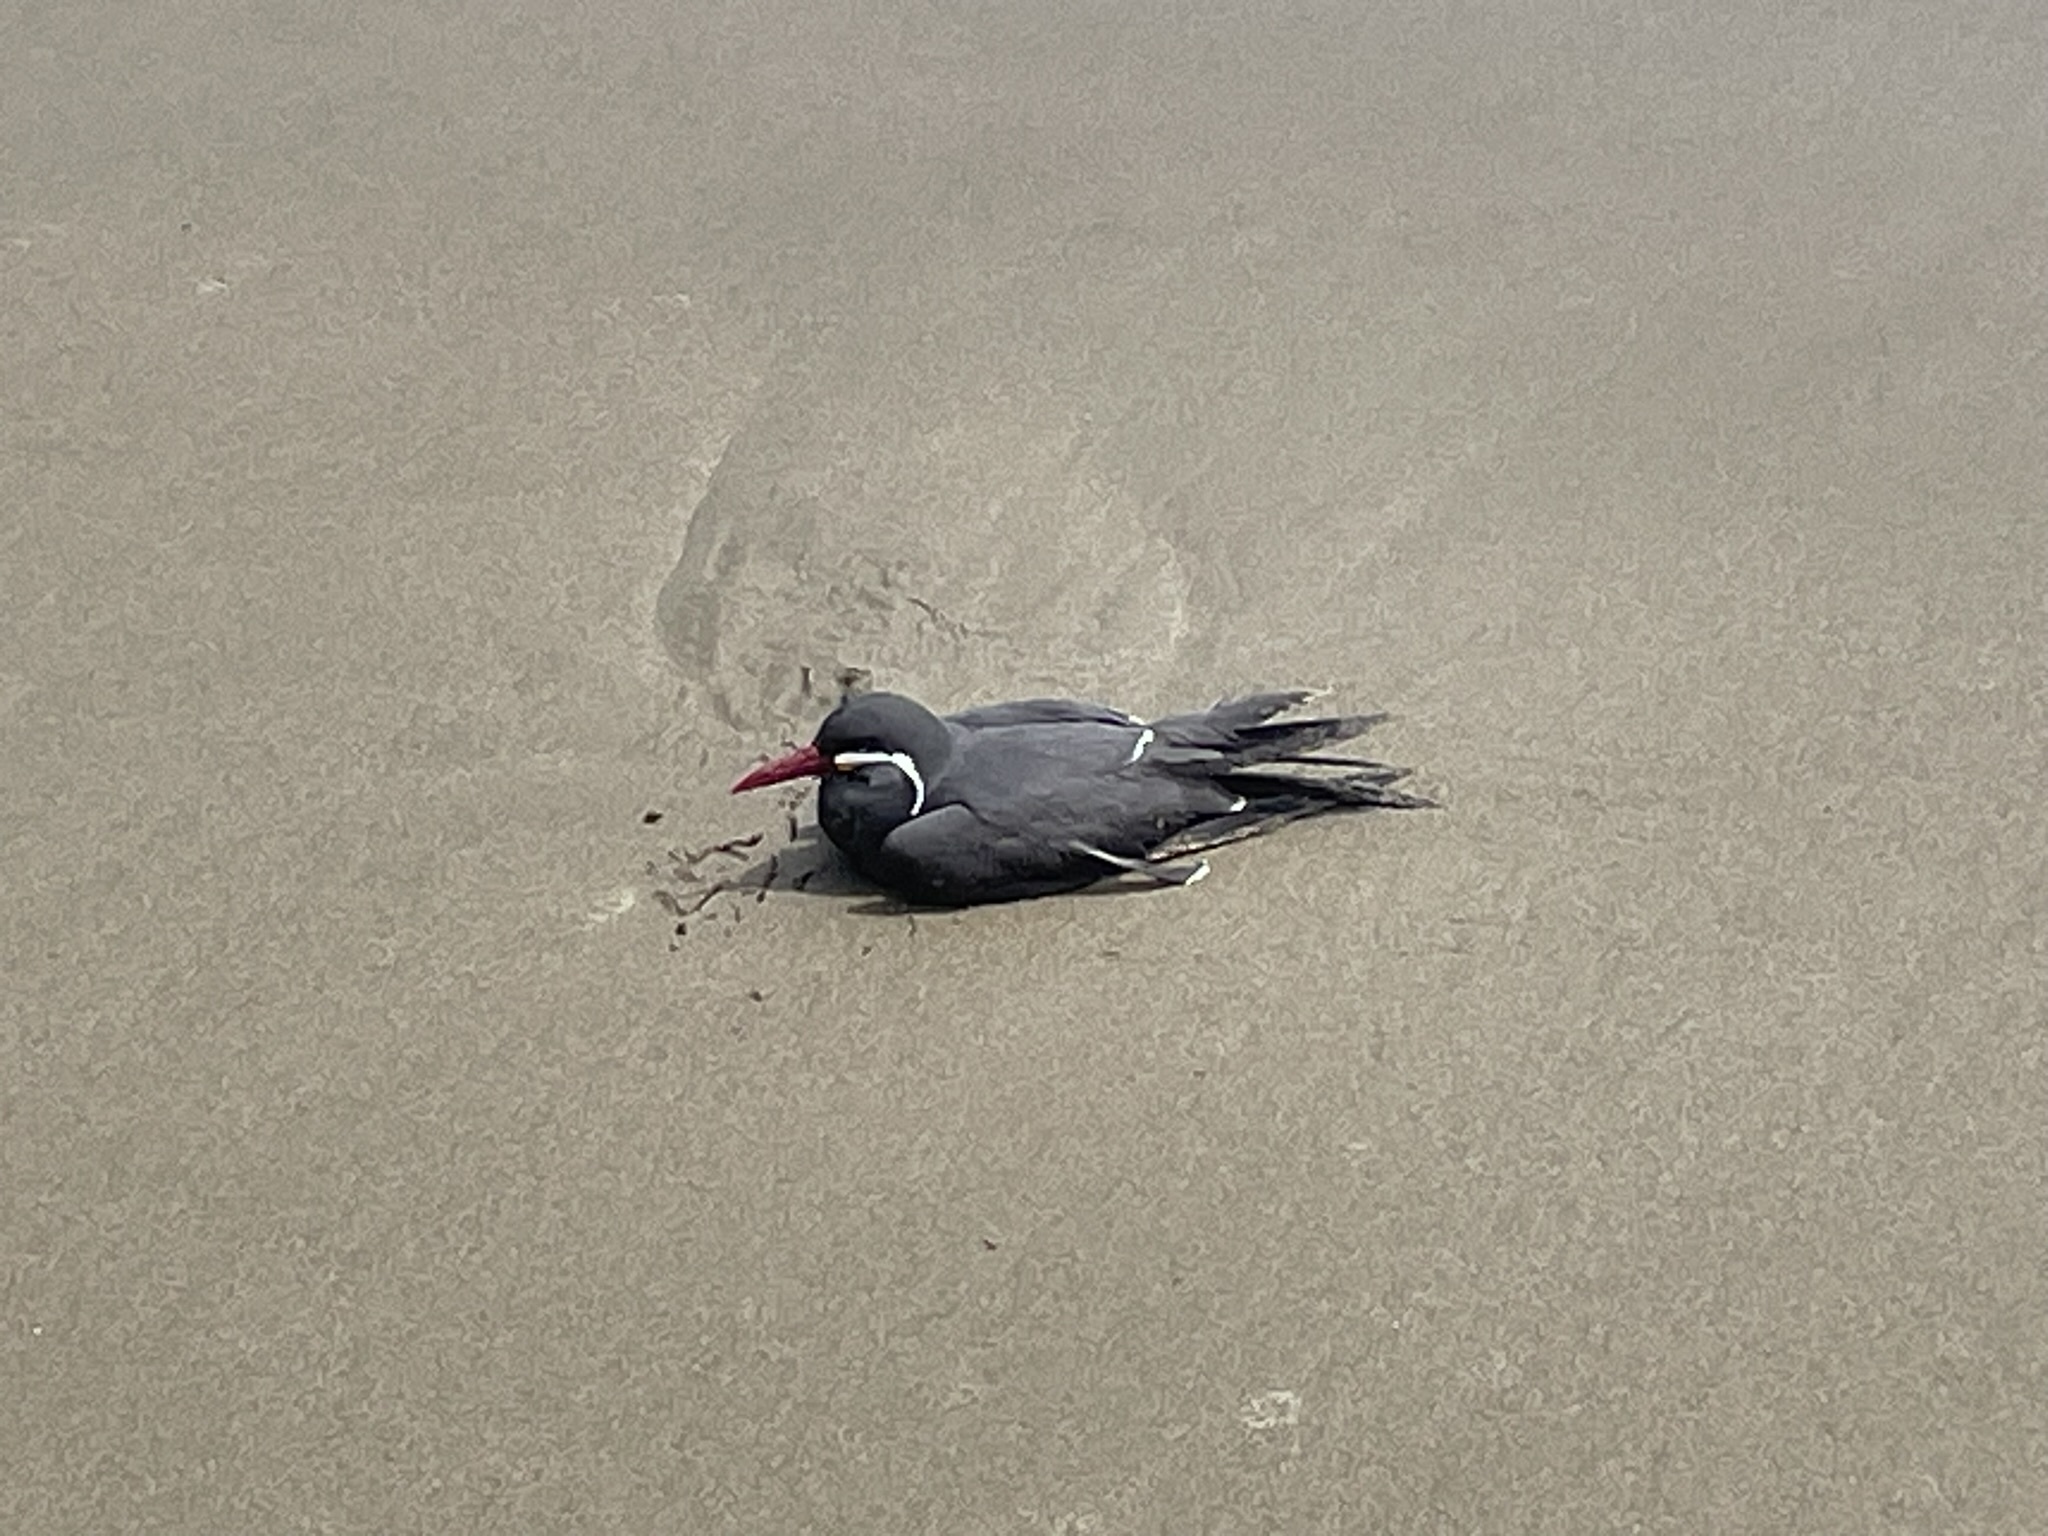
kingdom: Animalia
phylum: Chordata
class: Aves
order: Charadriiformes
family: Laridae
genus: Larosterna
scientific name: Larosterna inca
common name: Inca tern
